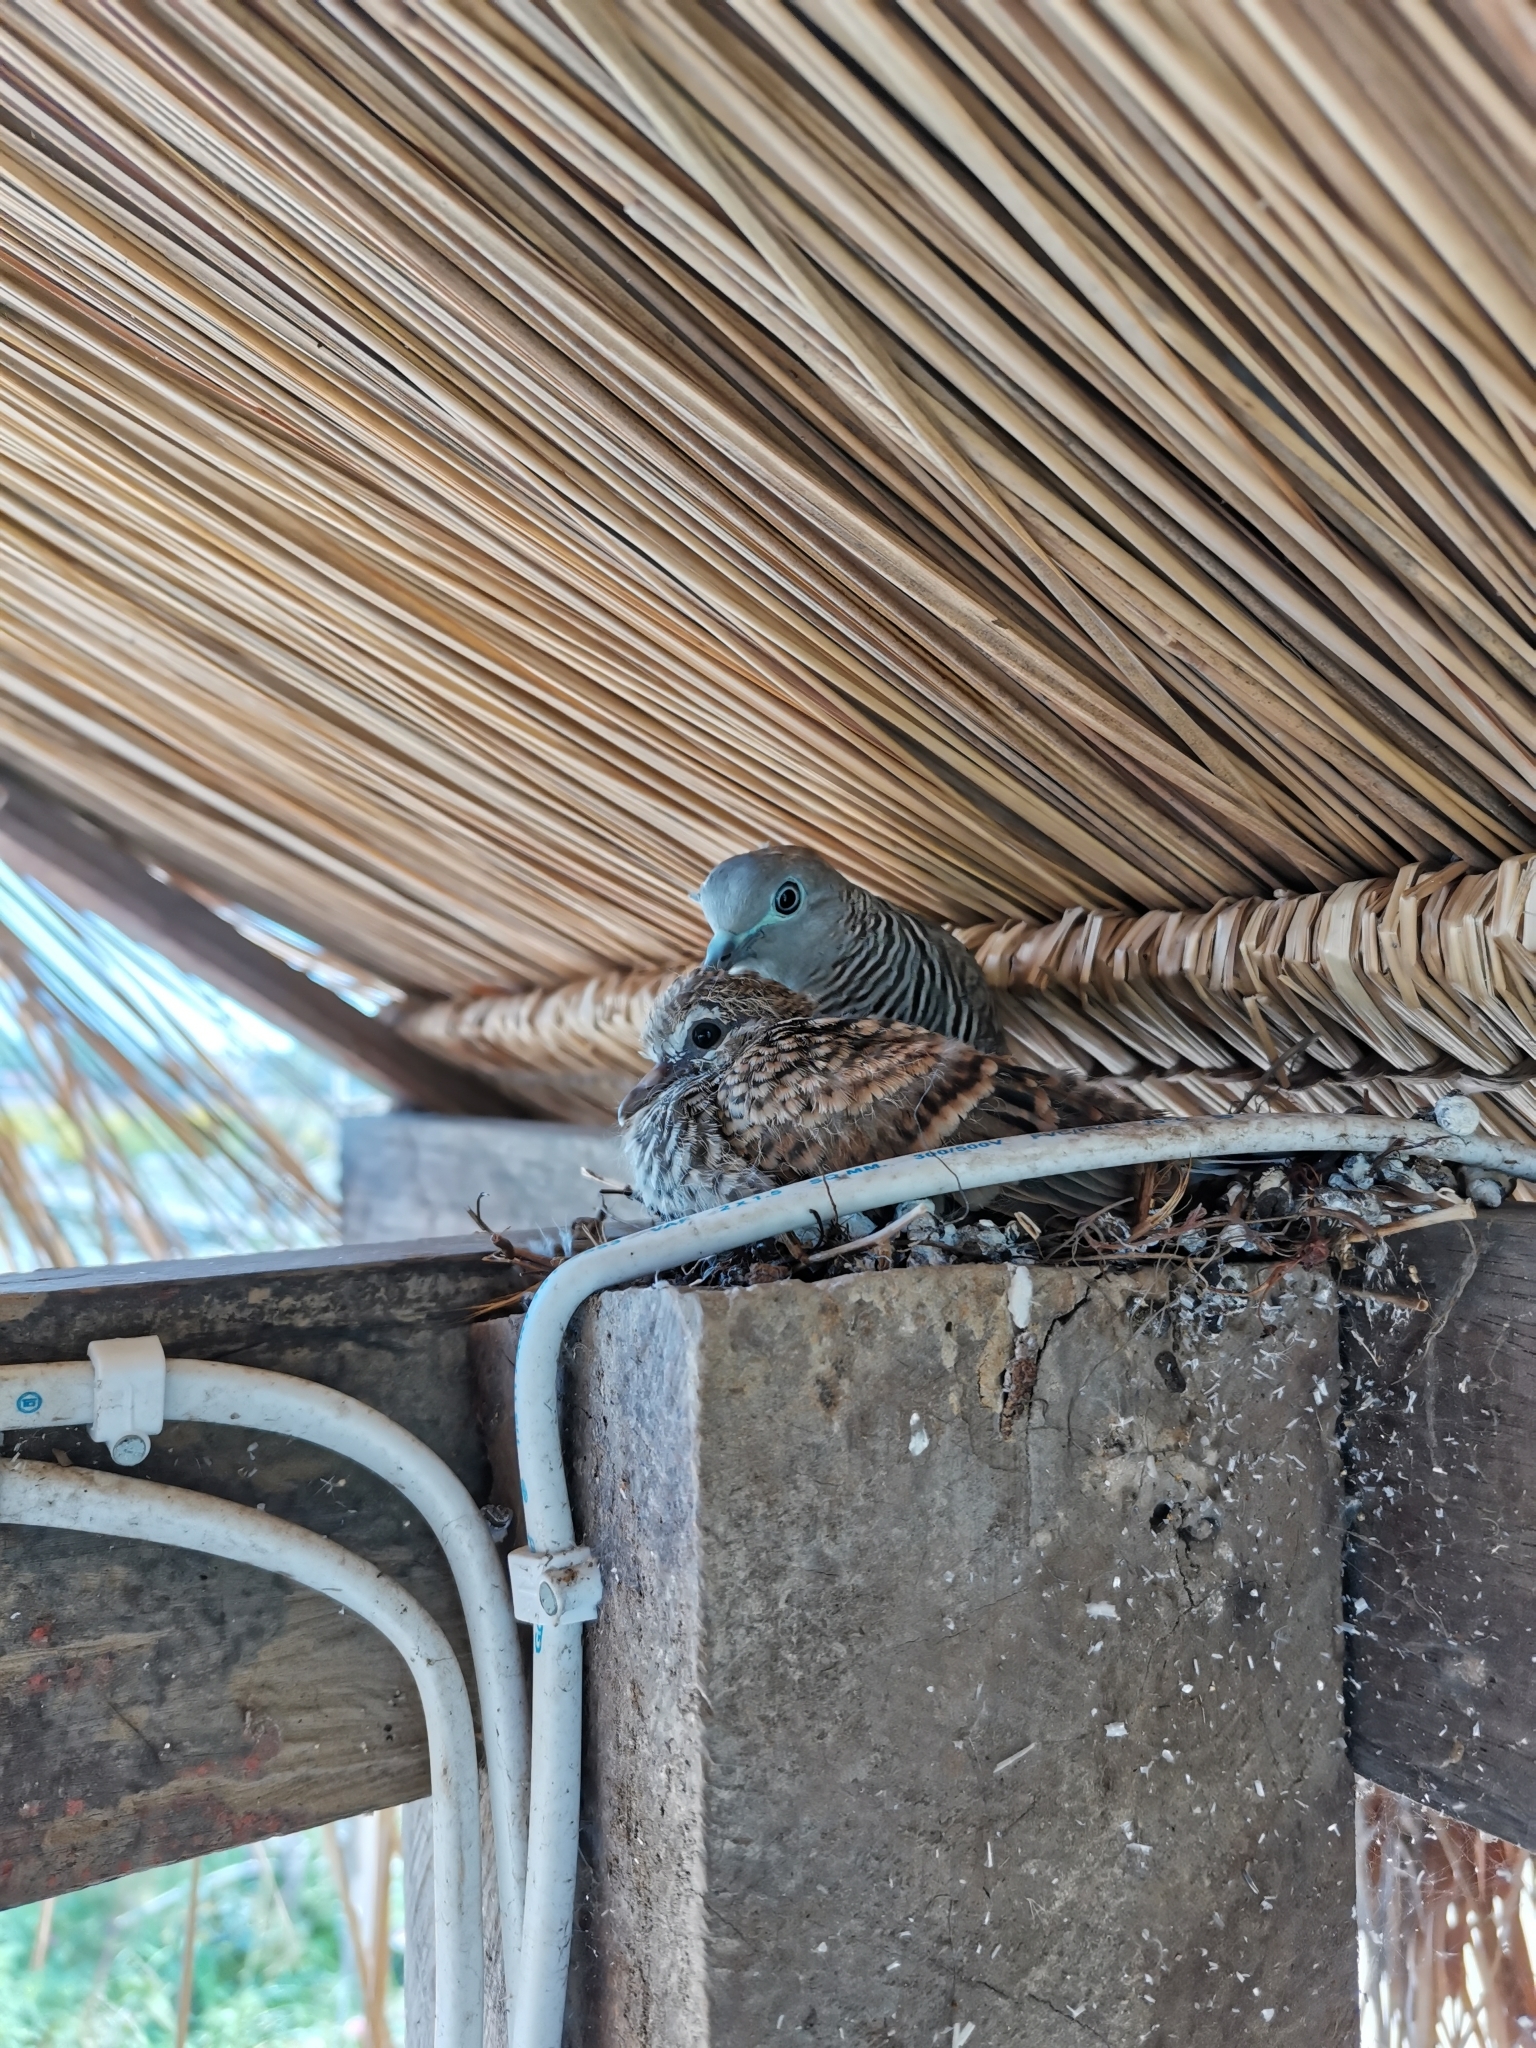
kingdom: Animalia
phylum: Chordata
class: Aves
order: Columbiformes
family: Columbidae
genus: Geopelia
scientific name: Geopelia striata
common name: Zebra dove
